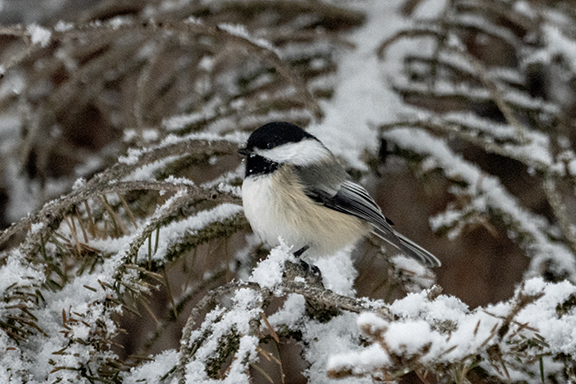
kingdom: Animalia
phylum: Chordata
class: Aves
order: Passeriformes
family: Paridae
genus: Poecile
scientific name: Poecile atricapillus
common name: Black-capped chickadee
